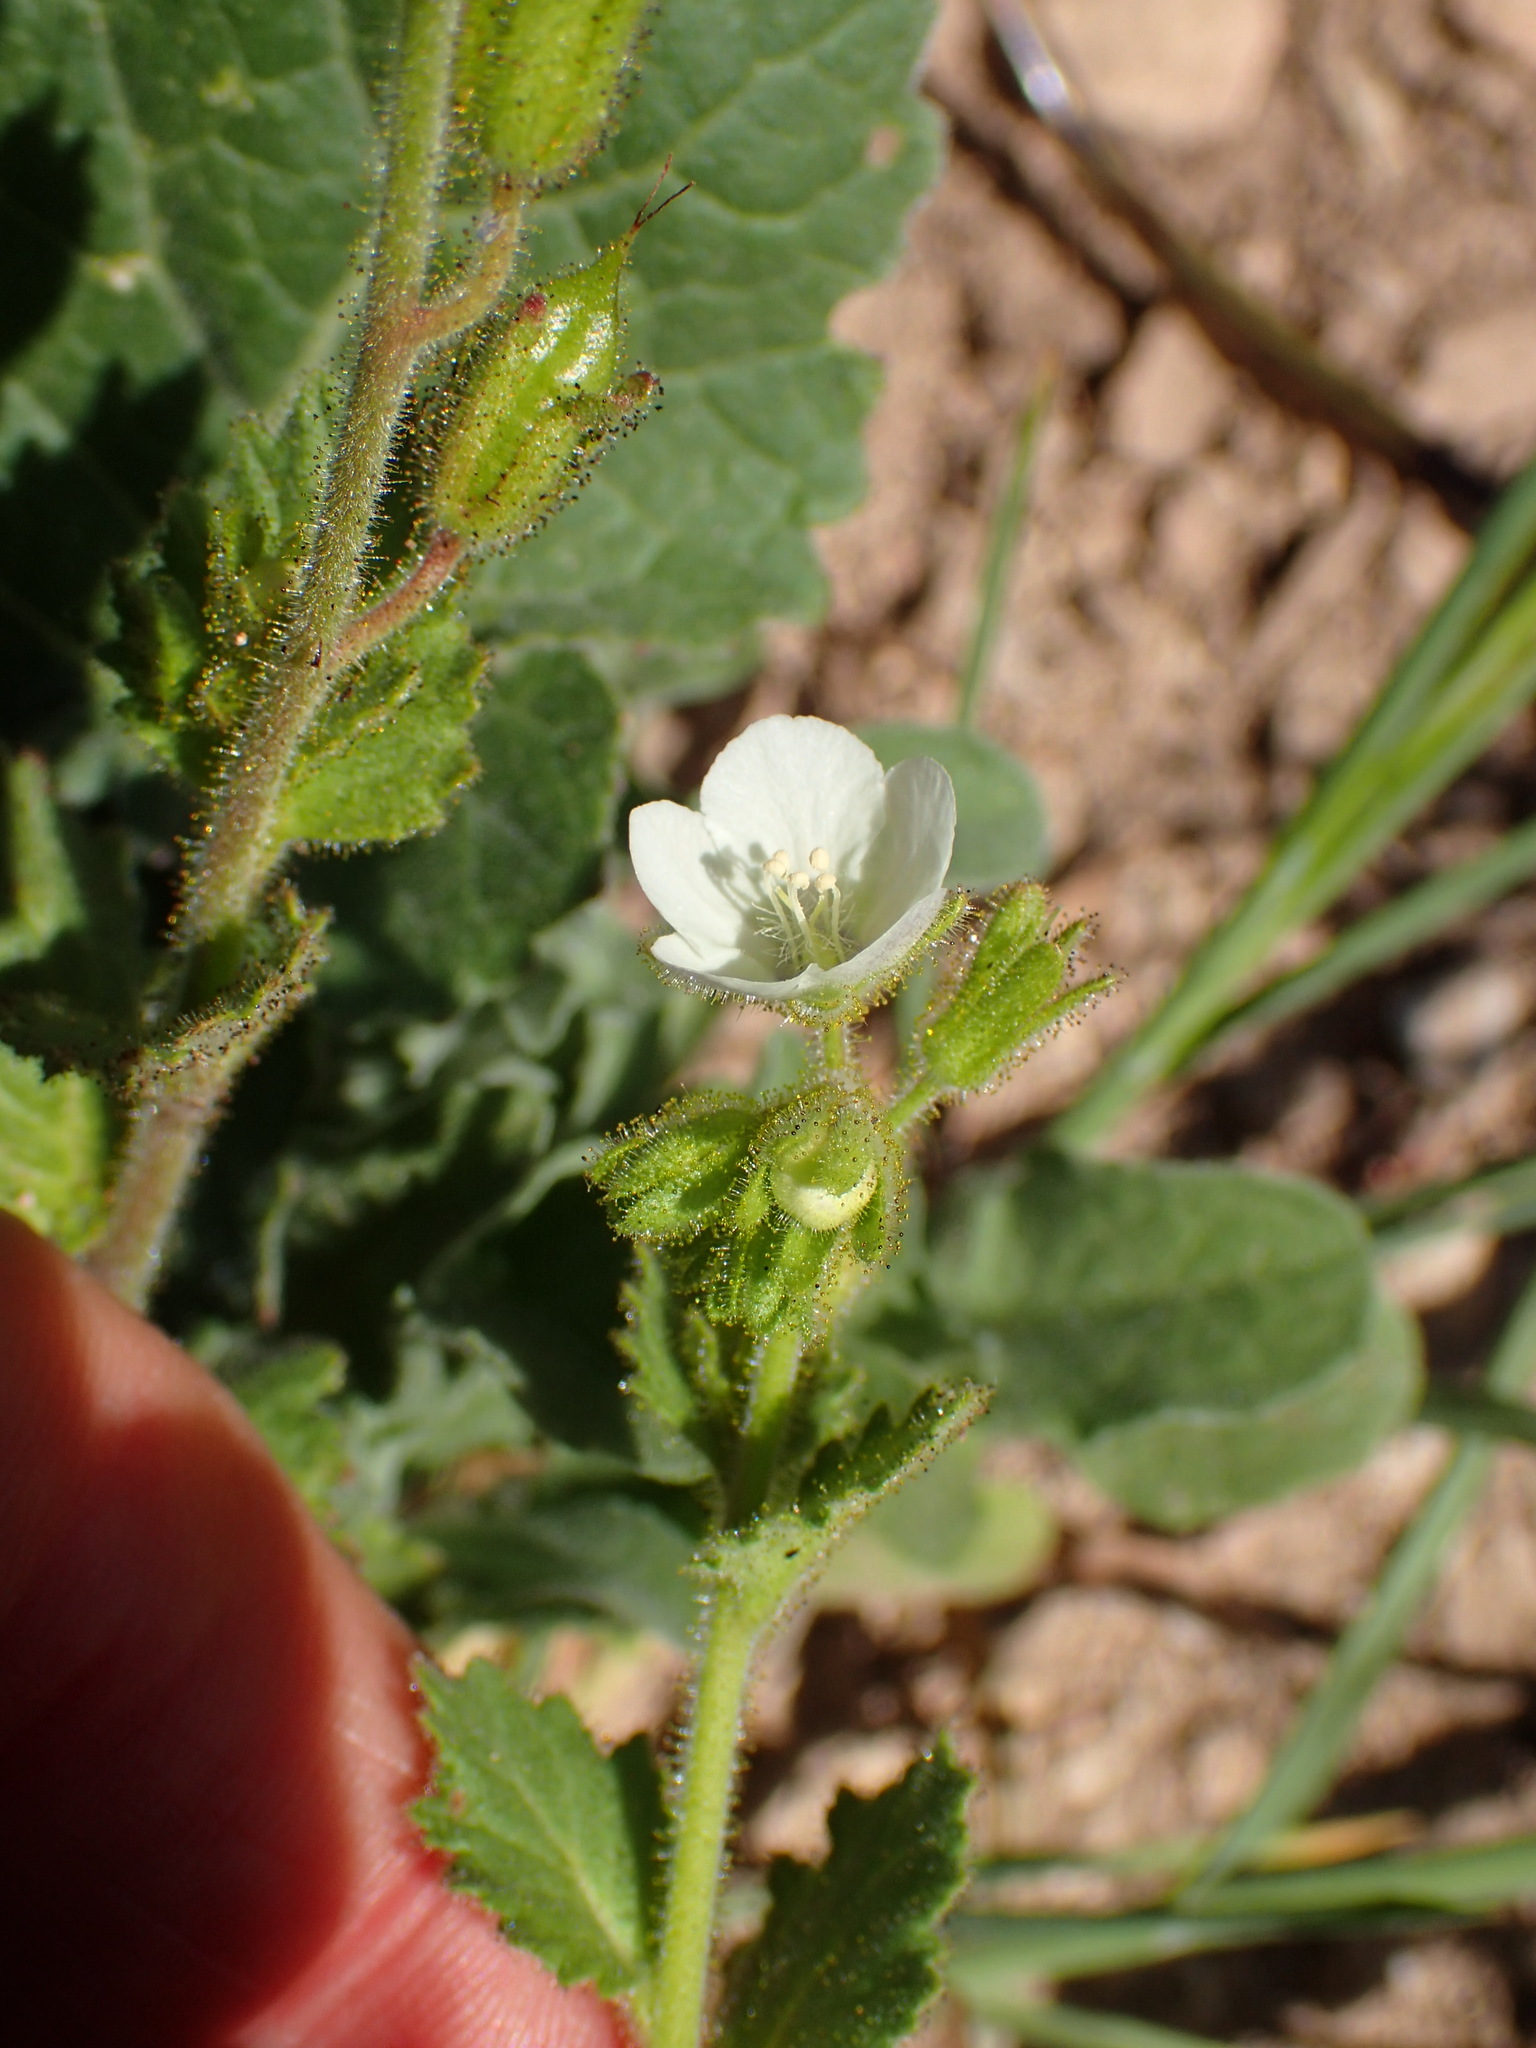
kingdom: Plantae
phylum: Tracheophyta
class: Magnoliopsida
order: Boraginales
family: Hydrophyllaceae
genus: Phacelia
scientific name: Phacelia viscida
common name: Sticky phacelia
